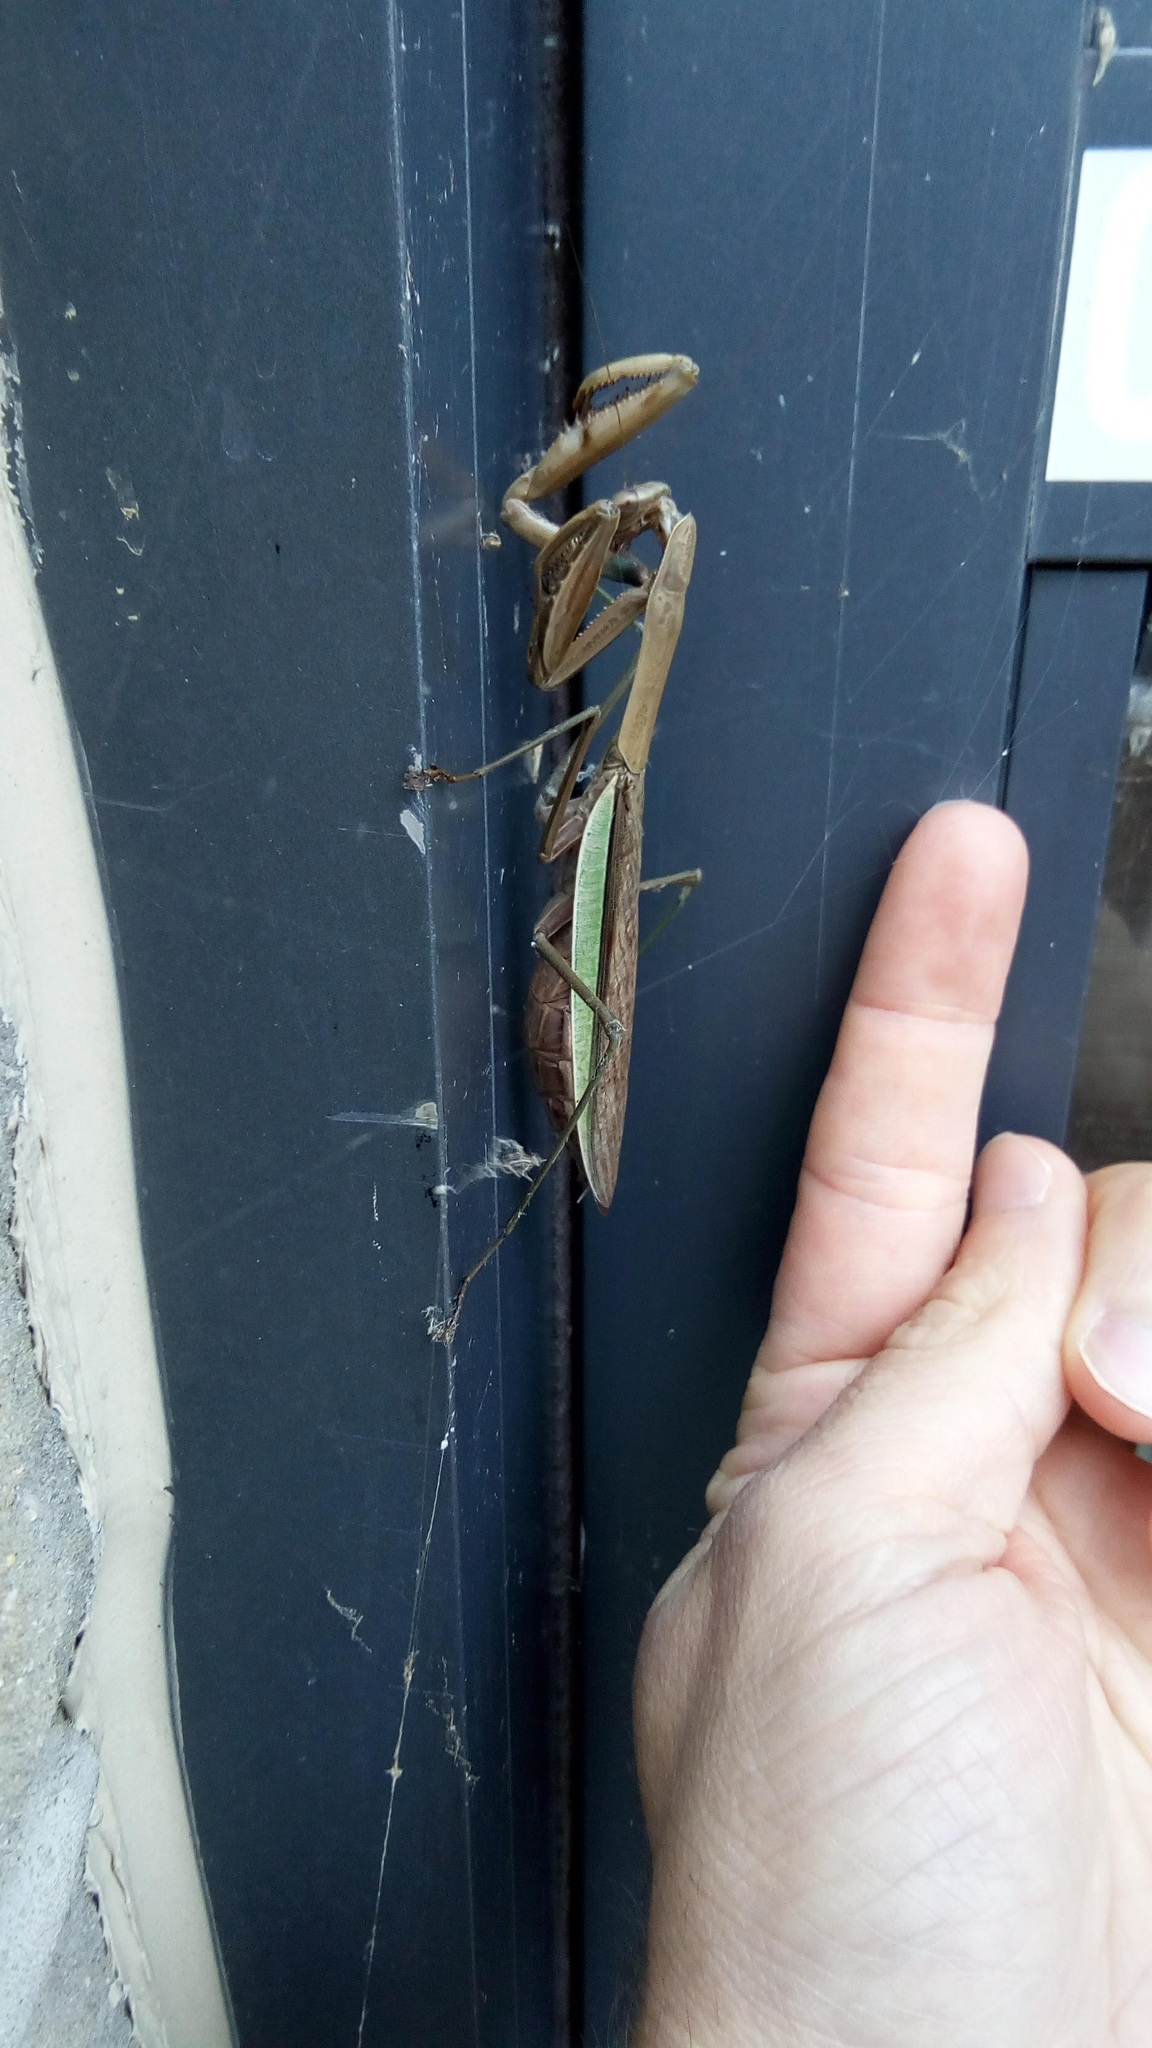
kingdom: Animalia
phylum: Arthropoda
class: Insecta
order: Mantodea
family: Mantidae
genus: Tenodera
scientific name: Tenodera sinensis
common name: Chinese mantis
